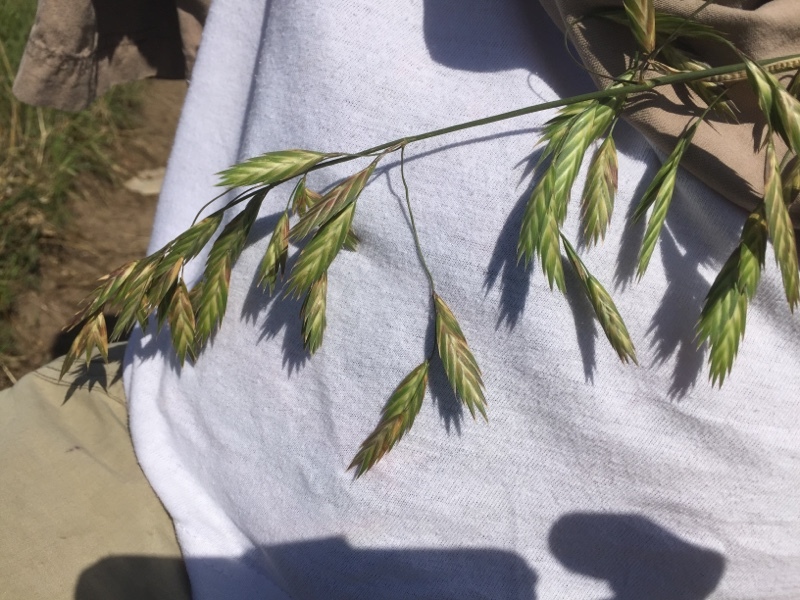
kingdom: Plantae
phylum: Tracheophyta
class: Liliopsida
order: Poales
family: Poaceae
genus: Bromus
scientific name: Bromus catharticus
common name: Rescuegrass
